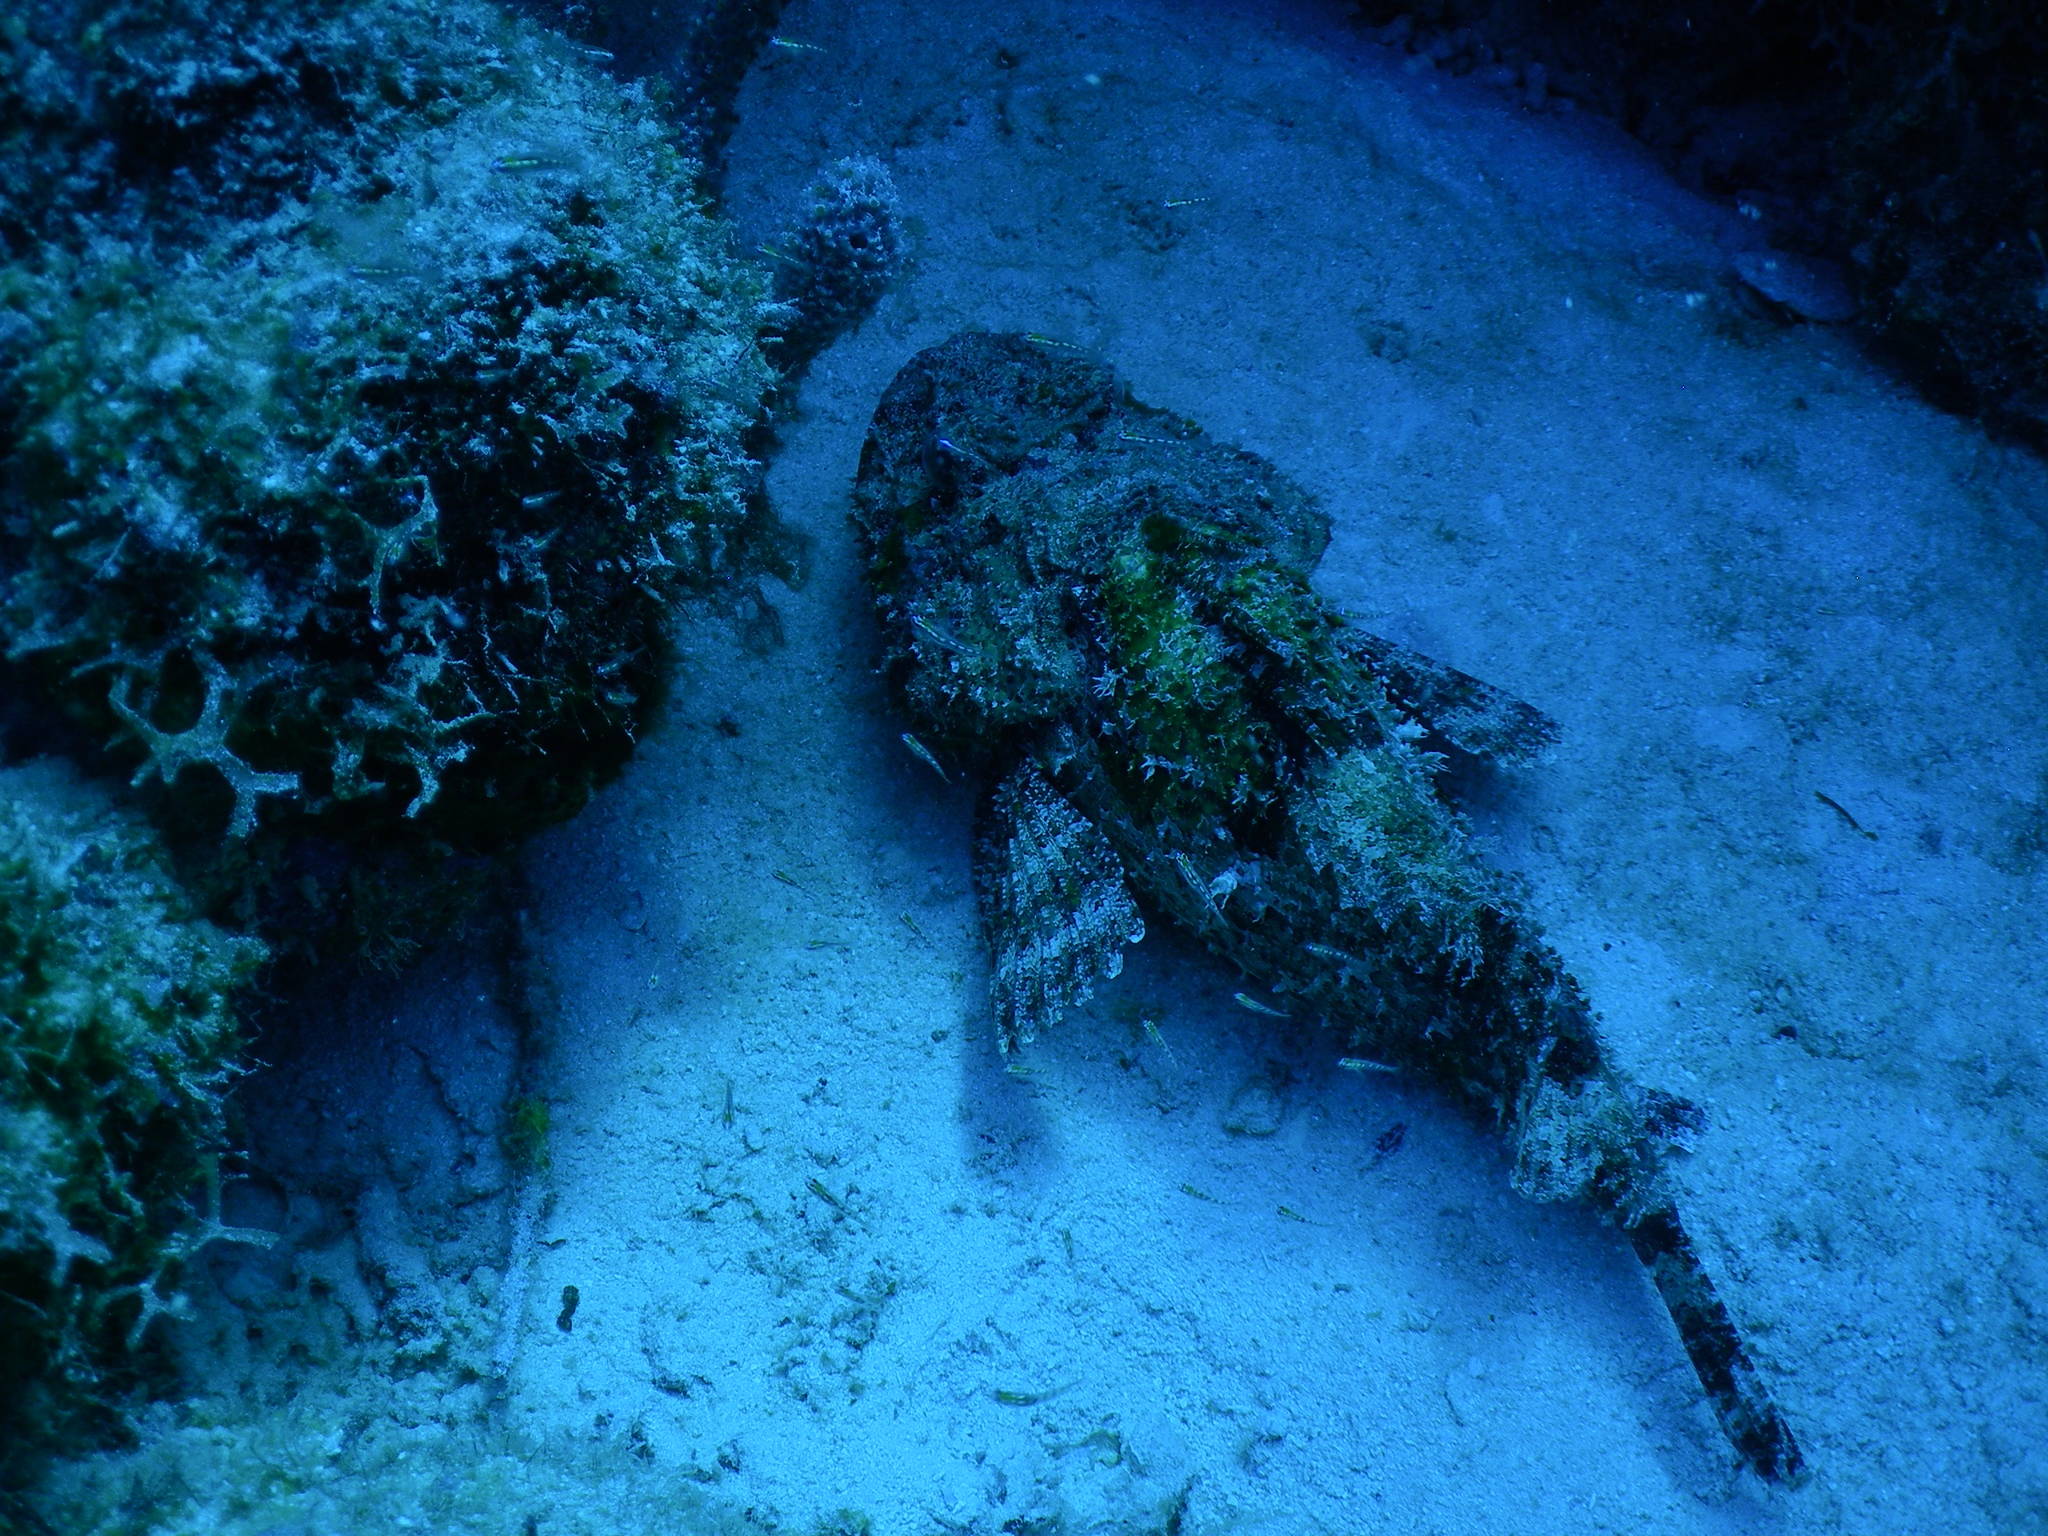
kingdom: Animalia
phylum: Chordata
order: Scorpaeniformes
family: Scorpaenidae
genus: Scorpaena
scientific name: Scorpaena plumieri
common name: Spotted scorpionfish
